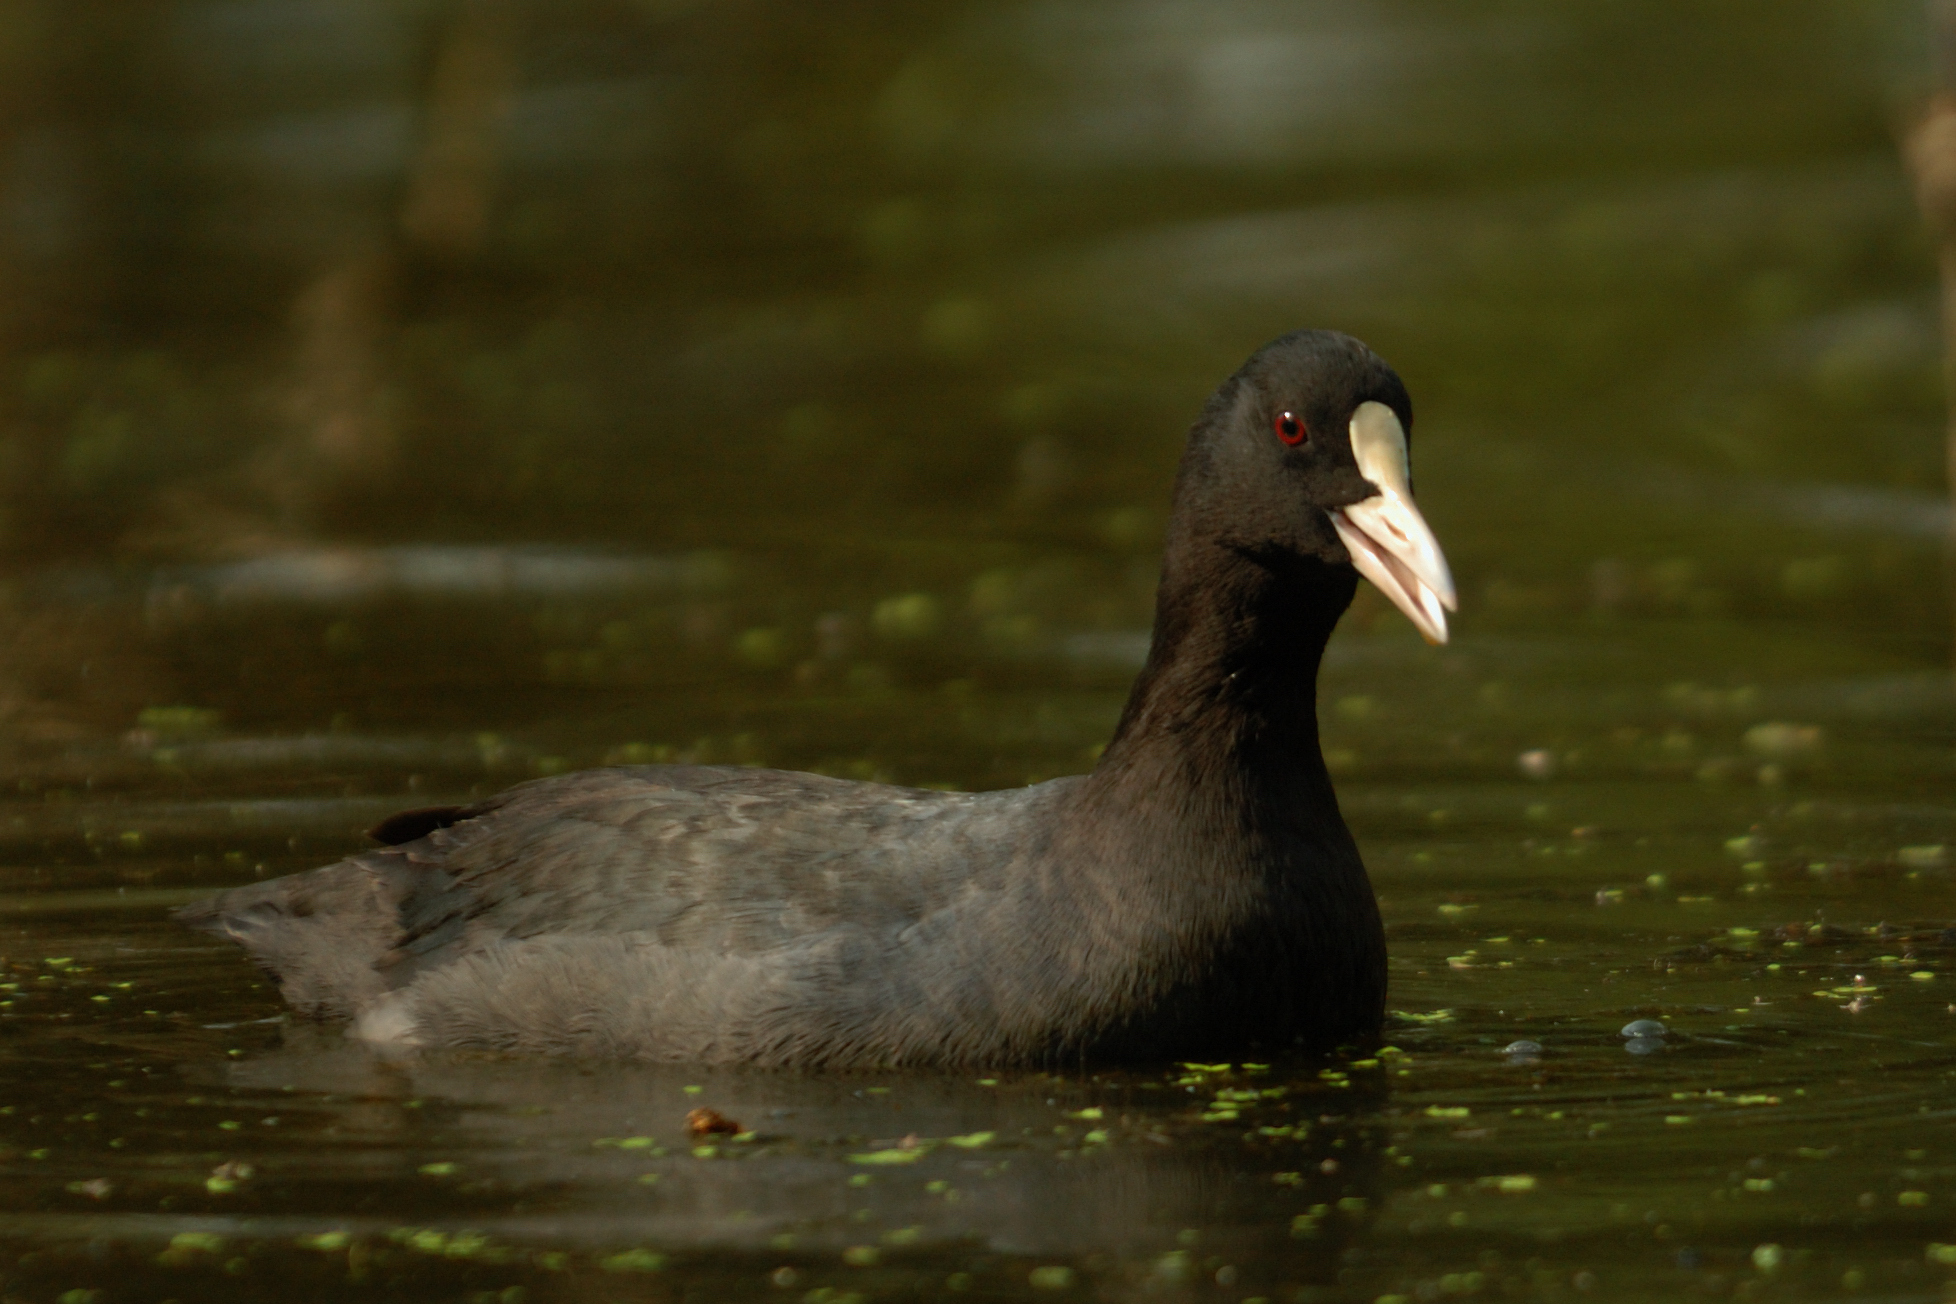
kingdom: Animalia
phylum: Chordata
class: Aves
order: Gruiformes
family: Rallidae
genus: Fulica
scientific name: Fulica atra
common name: Eurasian coot
